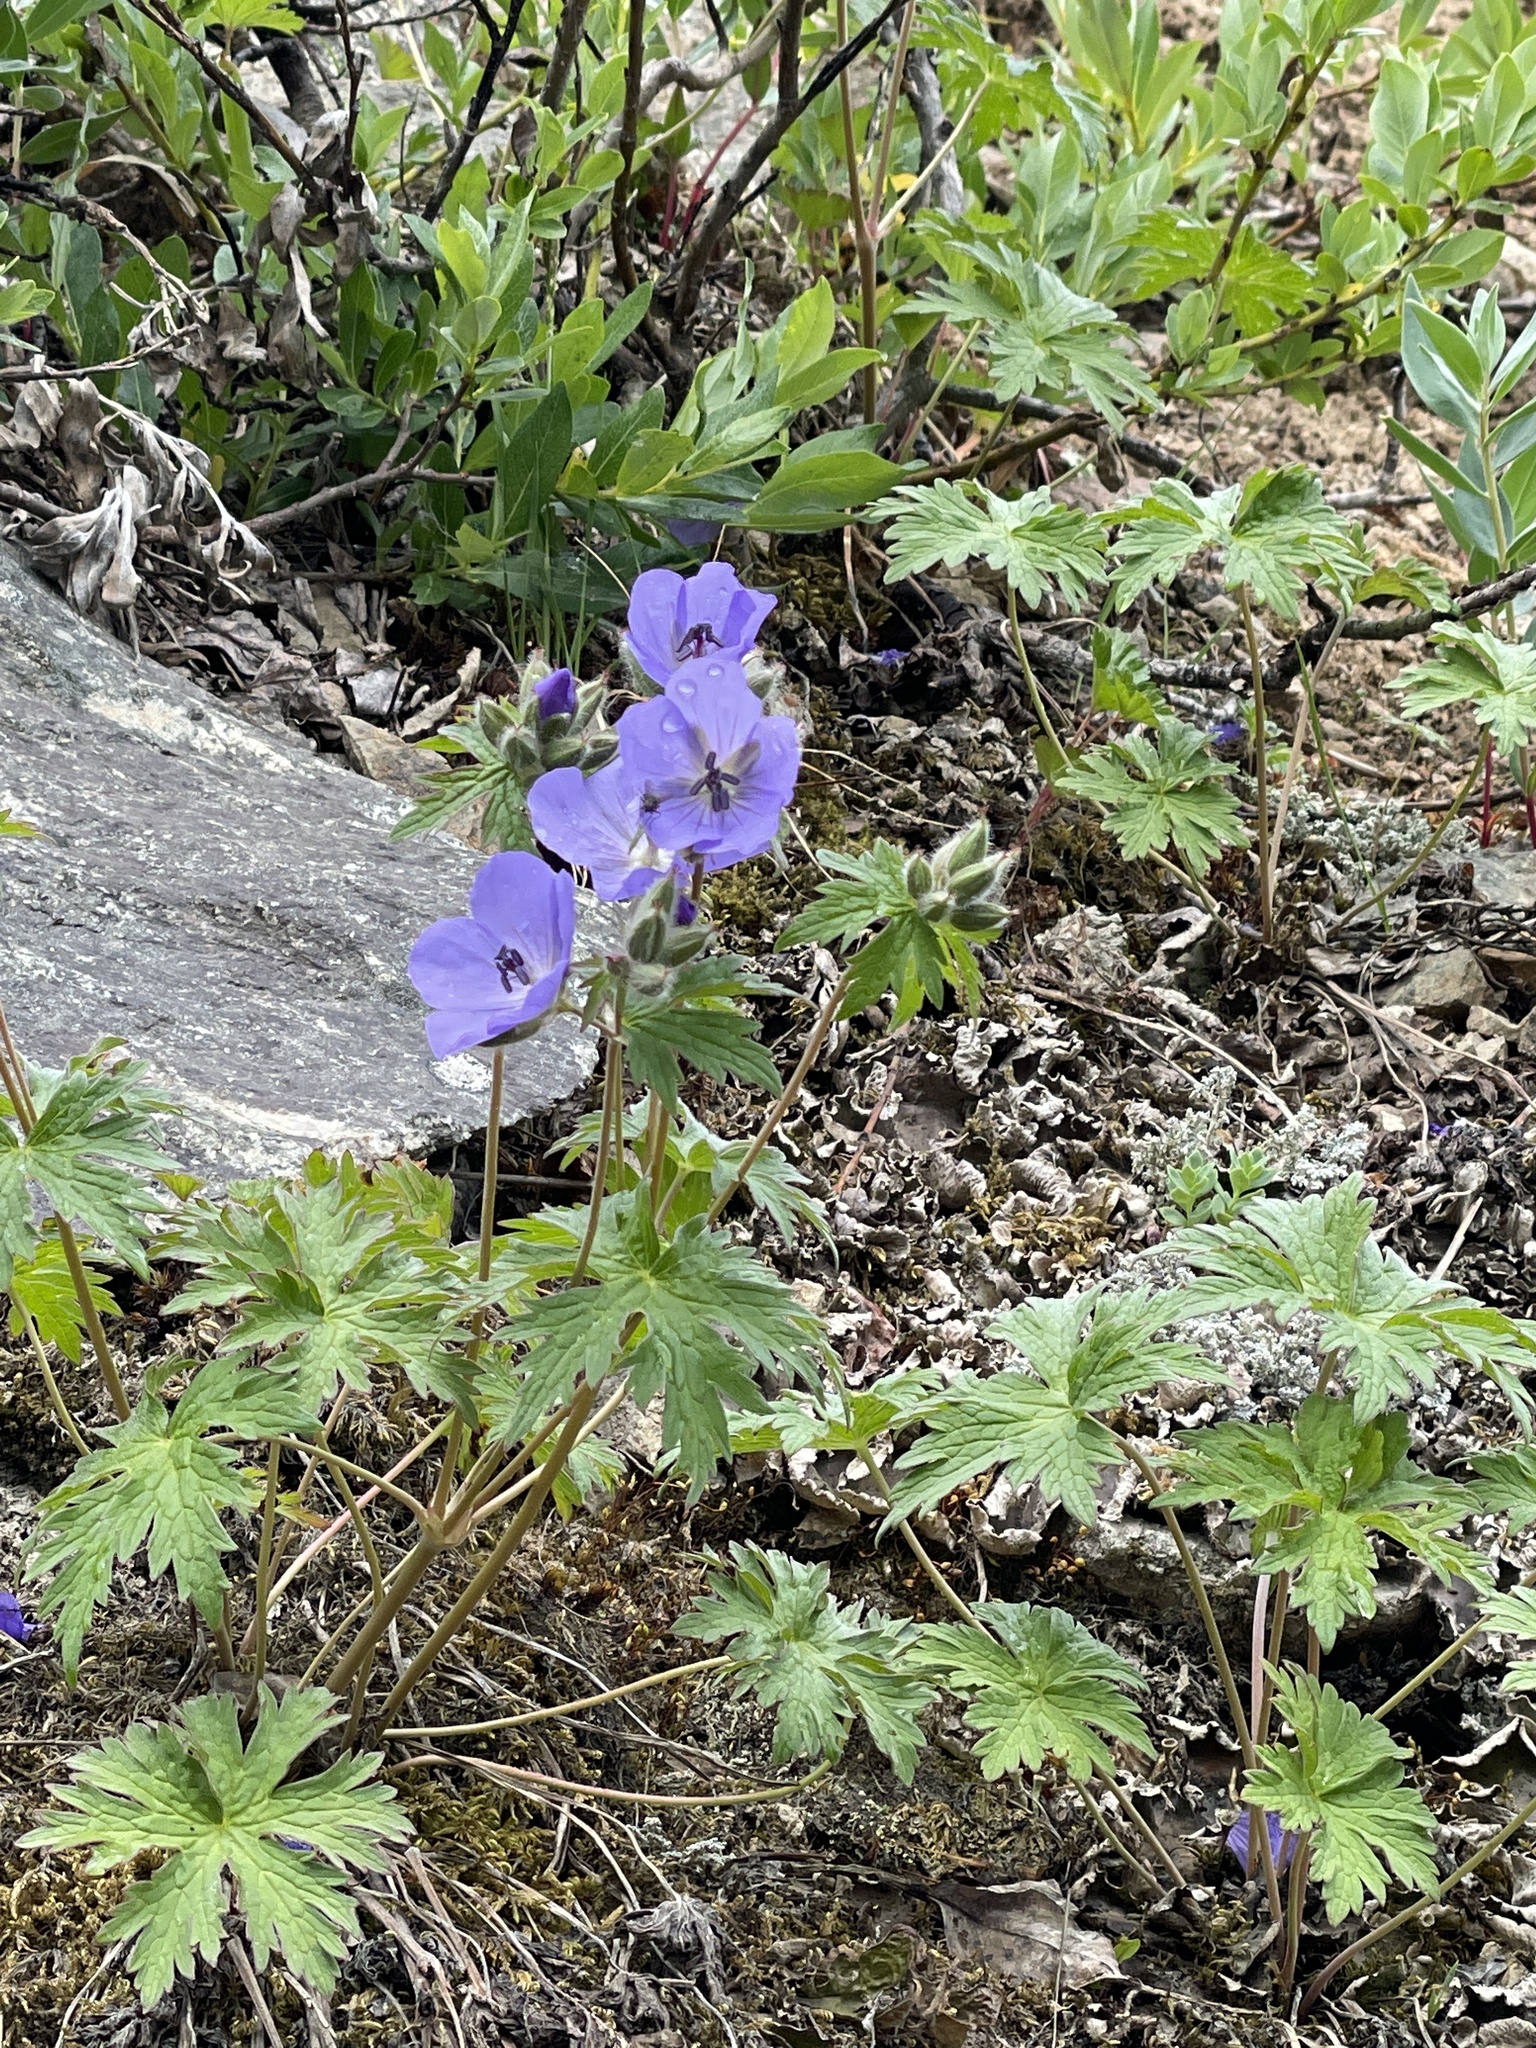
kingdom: Plantae
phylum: Tracheophyta
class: Magnoliopsida
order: Geraniales
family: Geraniaceae
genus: Geranium
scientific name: Geranium erianthum
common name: Northern crane's-bill
